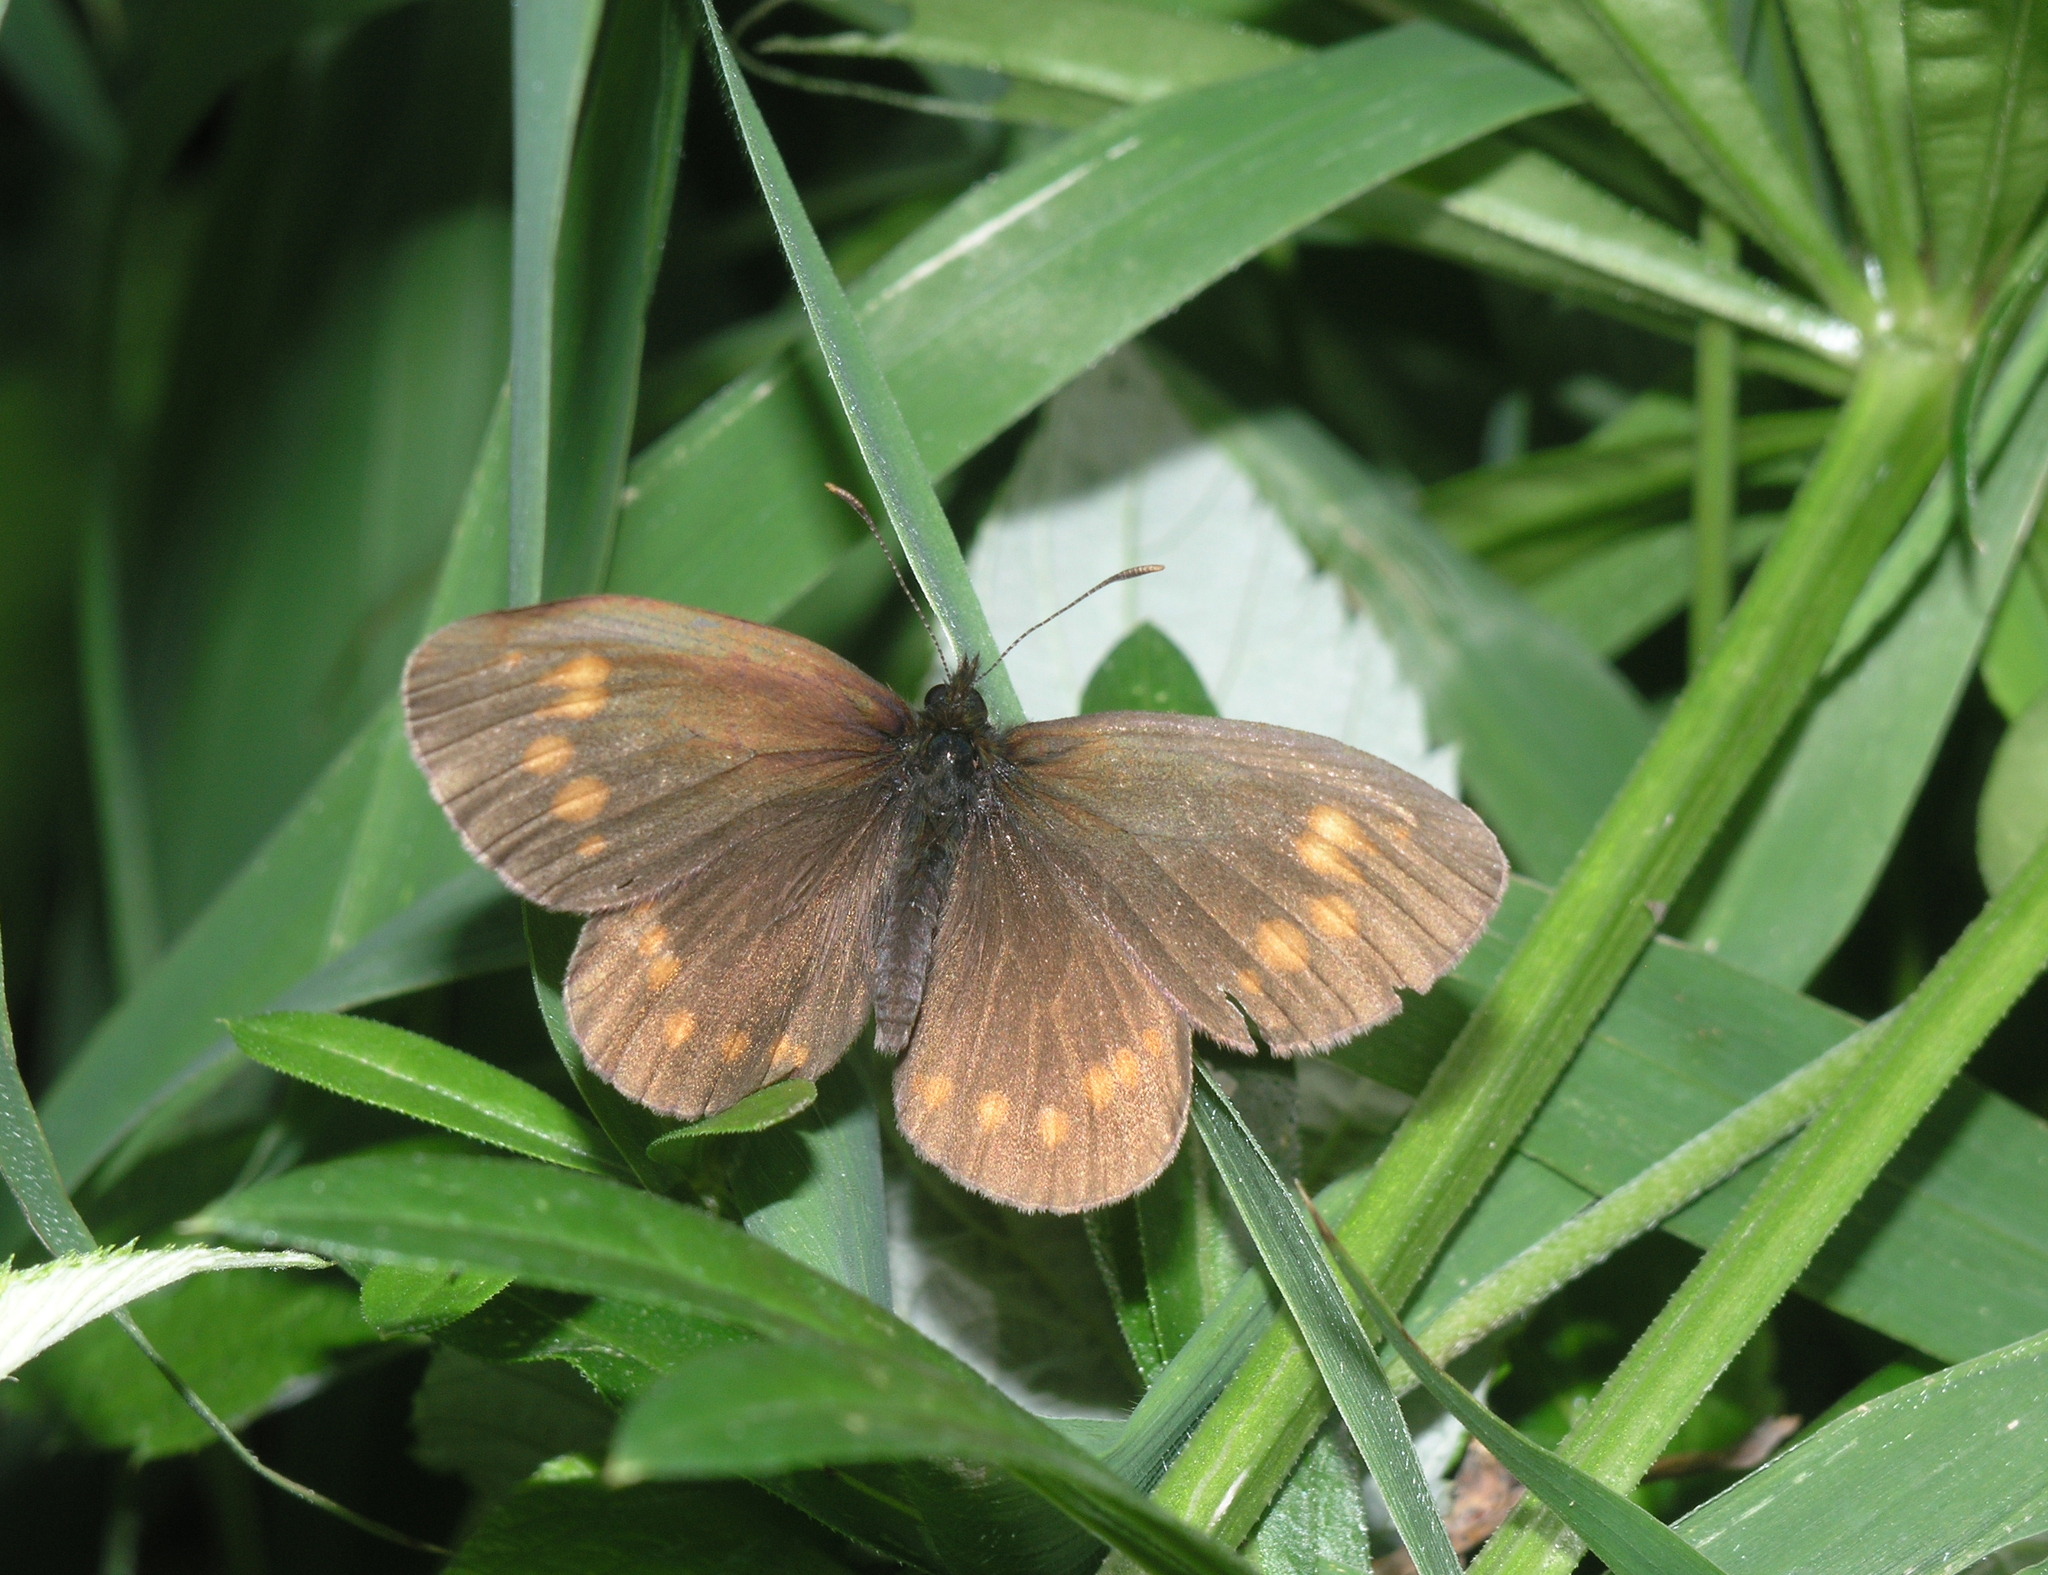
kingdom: Animalia
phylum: Arthropoda
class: Insecta
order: Lepidoptera
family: Nymphalidae
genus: Erebia
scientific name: Erebia turanica
